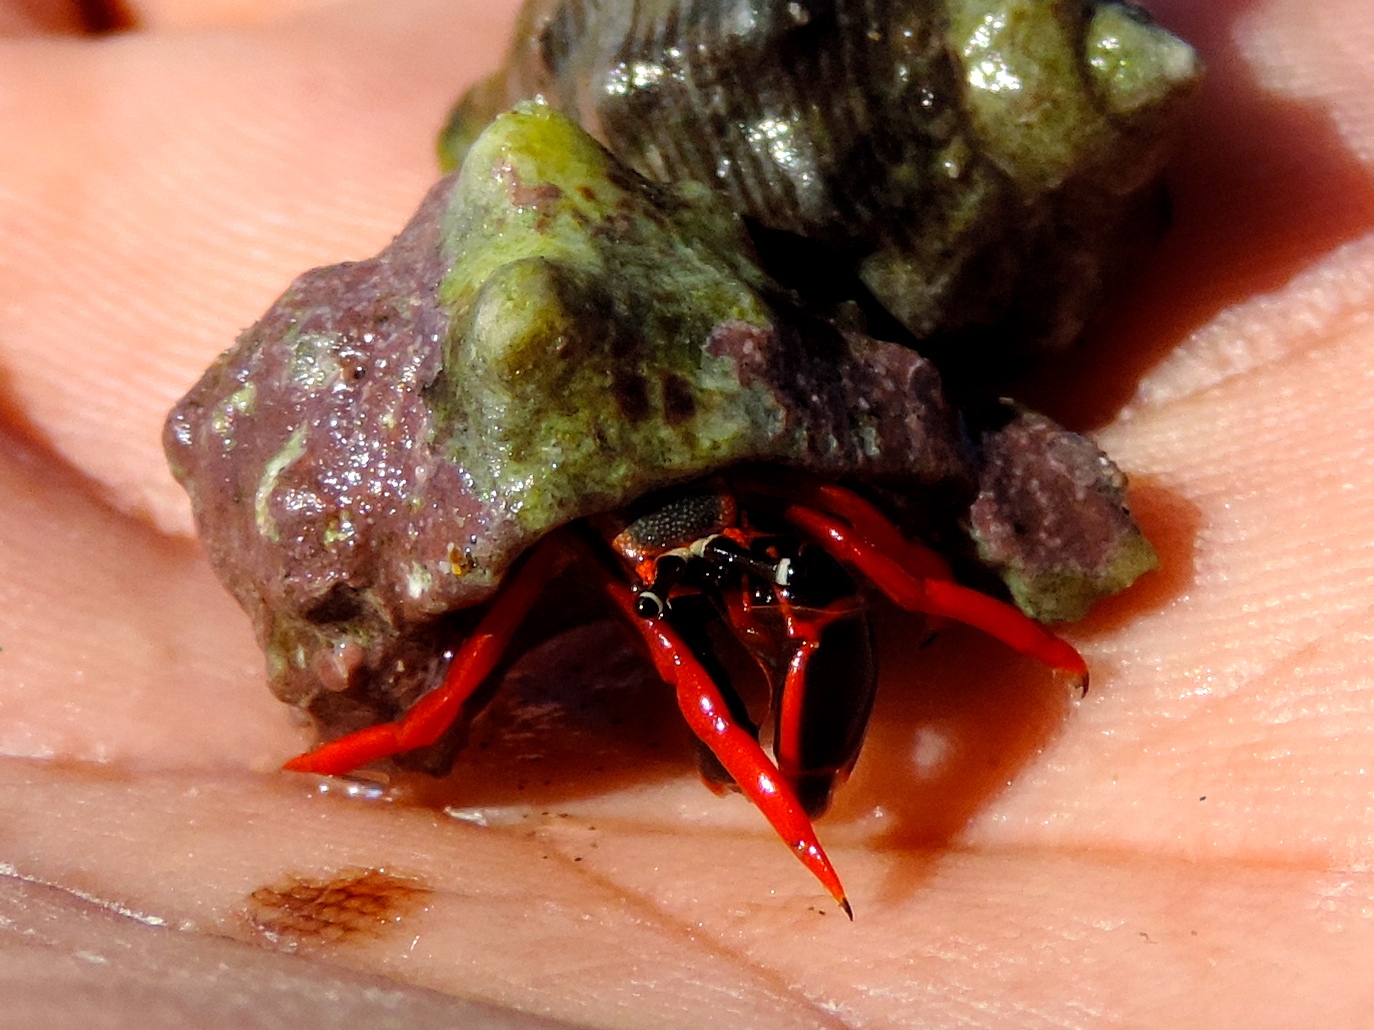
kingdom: Animalia
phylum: Arthropoda
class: Malacostraca
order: Decapoda
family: Diogenidae
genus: Calcinus
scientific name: Calcinus californiensis
